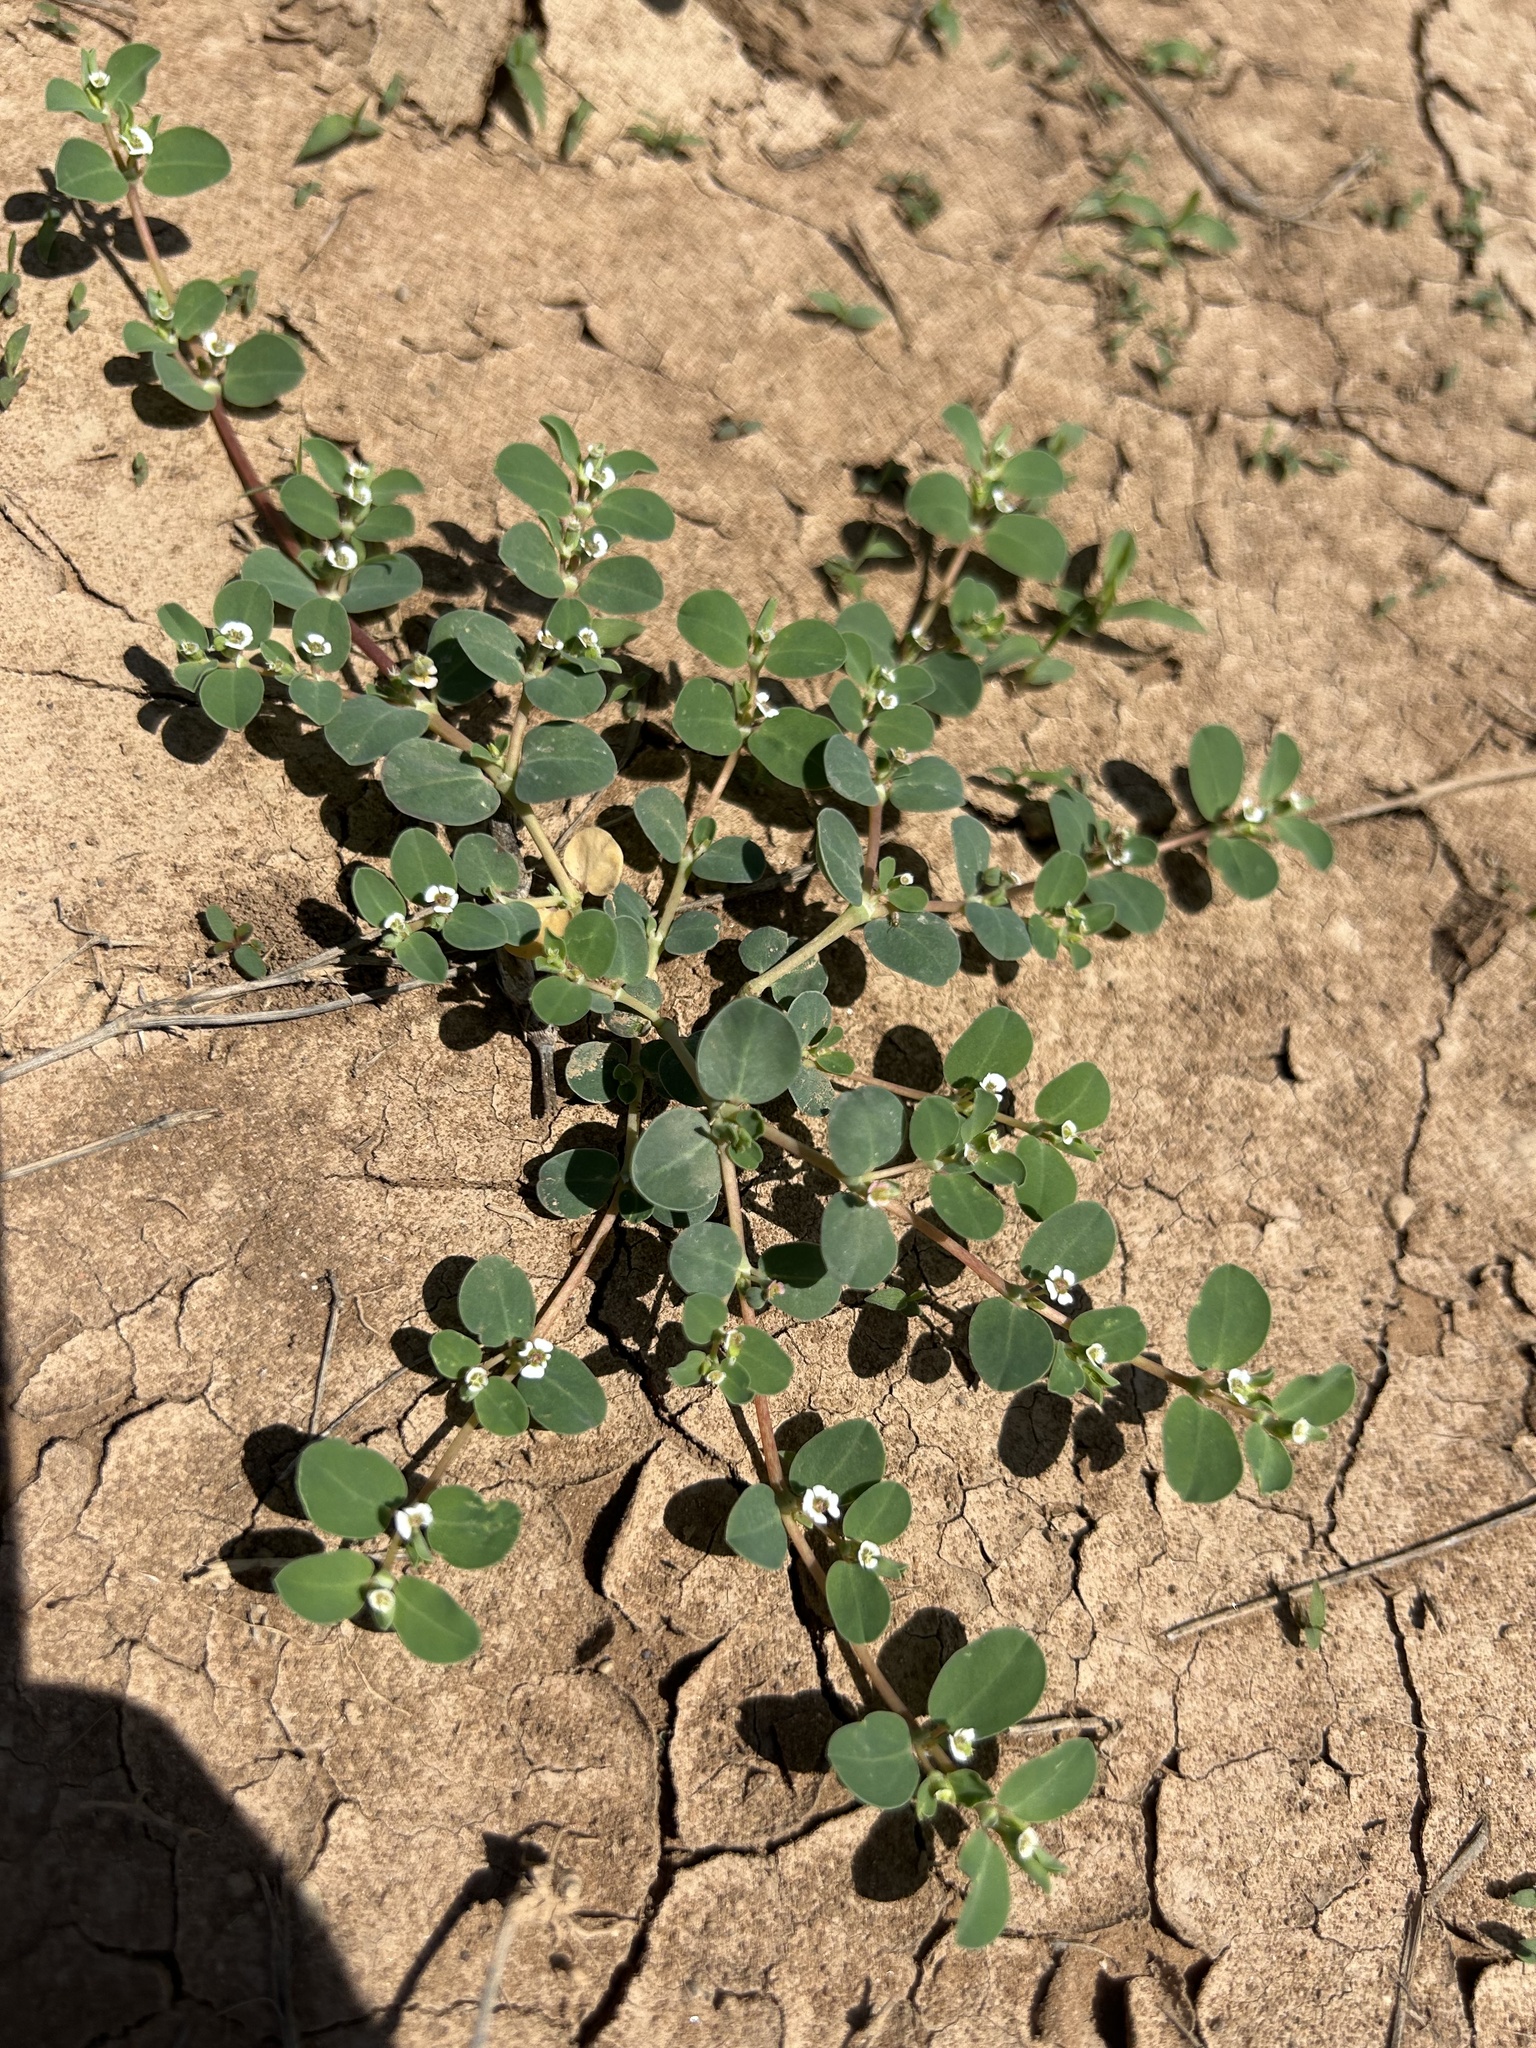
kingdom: Plantae
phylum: Tracheophyta
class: Magnoliopsida
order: Malpighiales
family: Euphorbiaceae
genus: Euphorbia
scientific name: Euphorbia albomarginata
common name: Whitemargin sandmat
